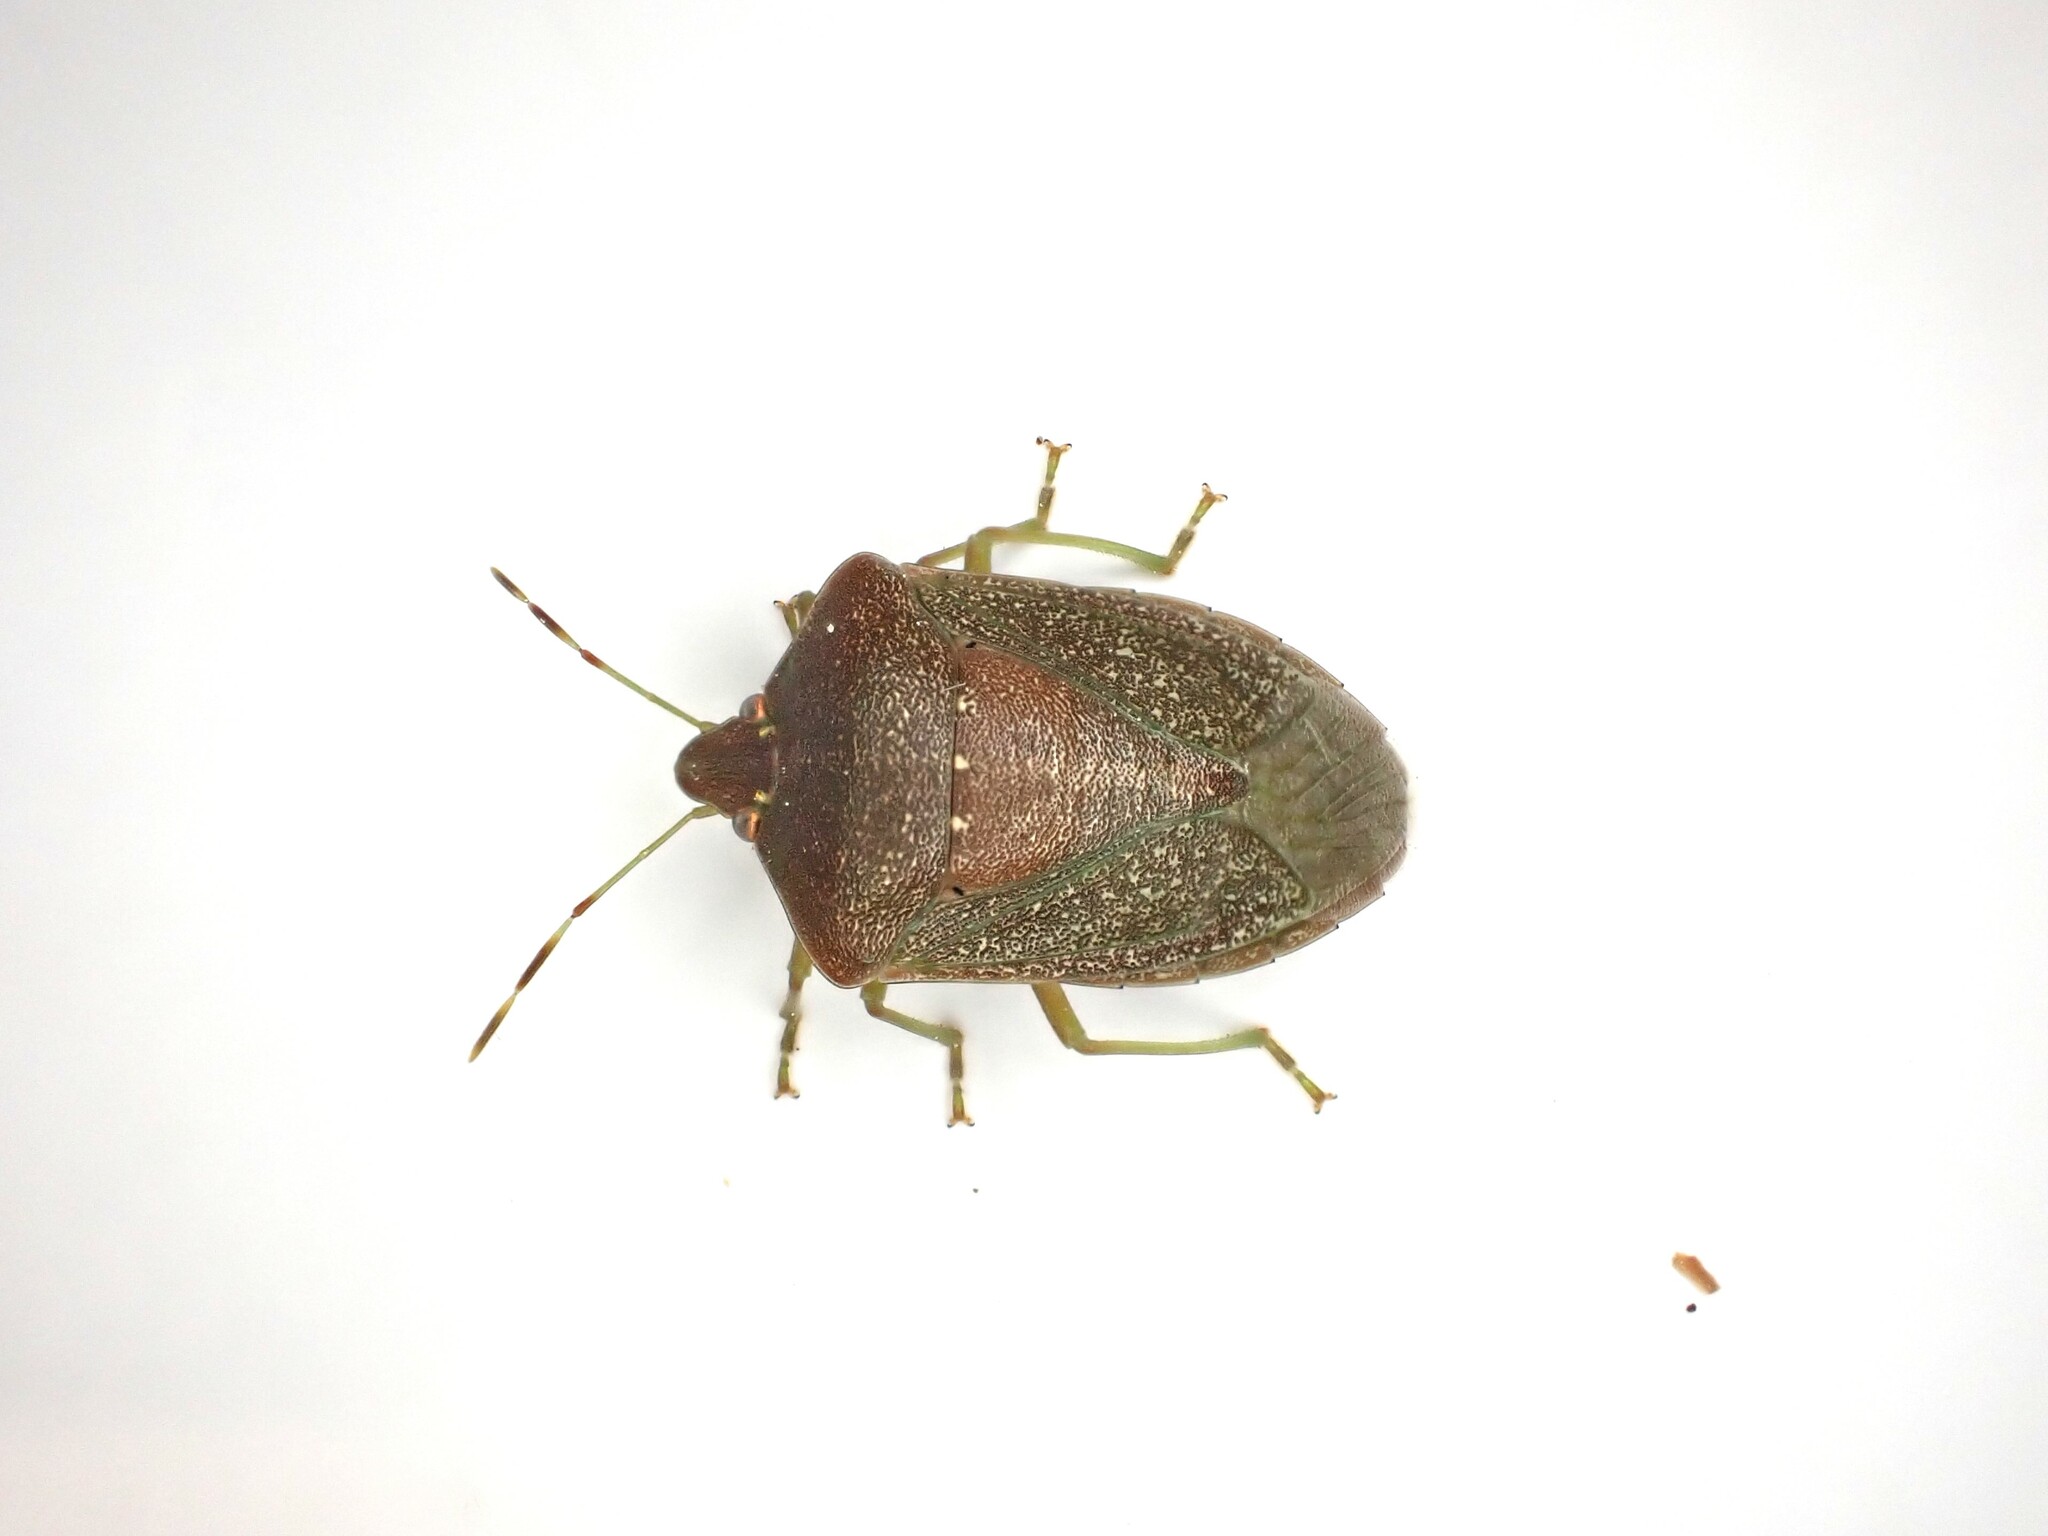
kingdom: Animalia
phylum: Arthropoda
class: Insecta
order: Hemiptera
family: Pentatomidae
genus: Nezara
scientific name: Nezara viridula
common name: Southern green stink bug
